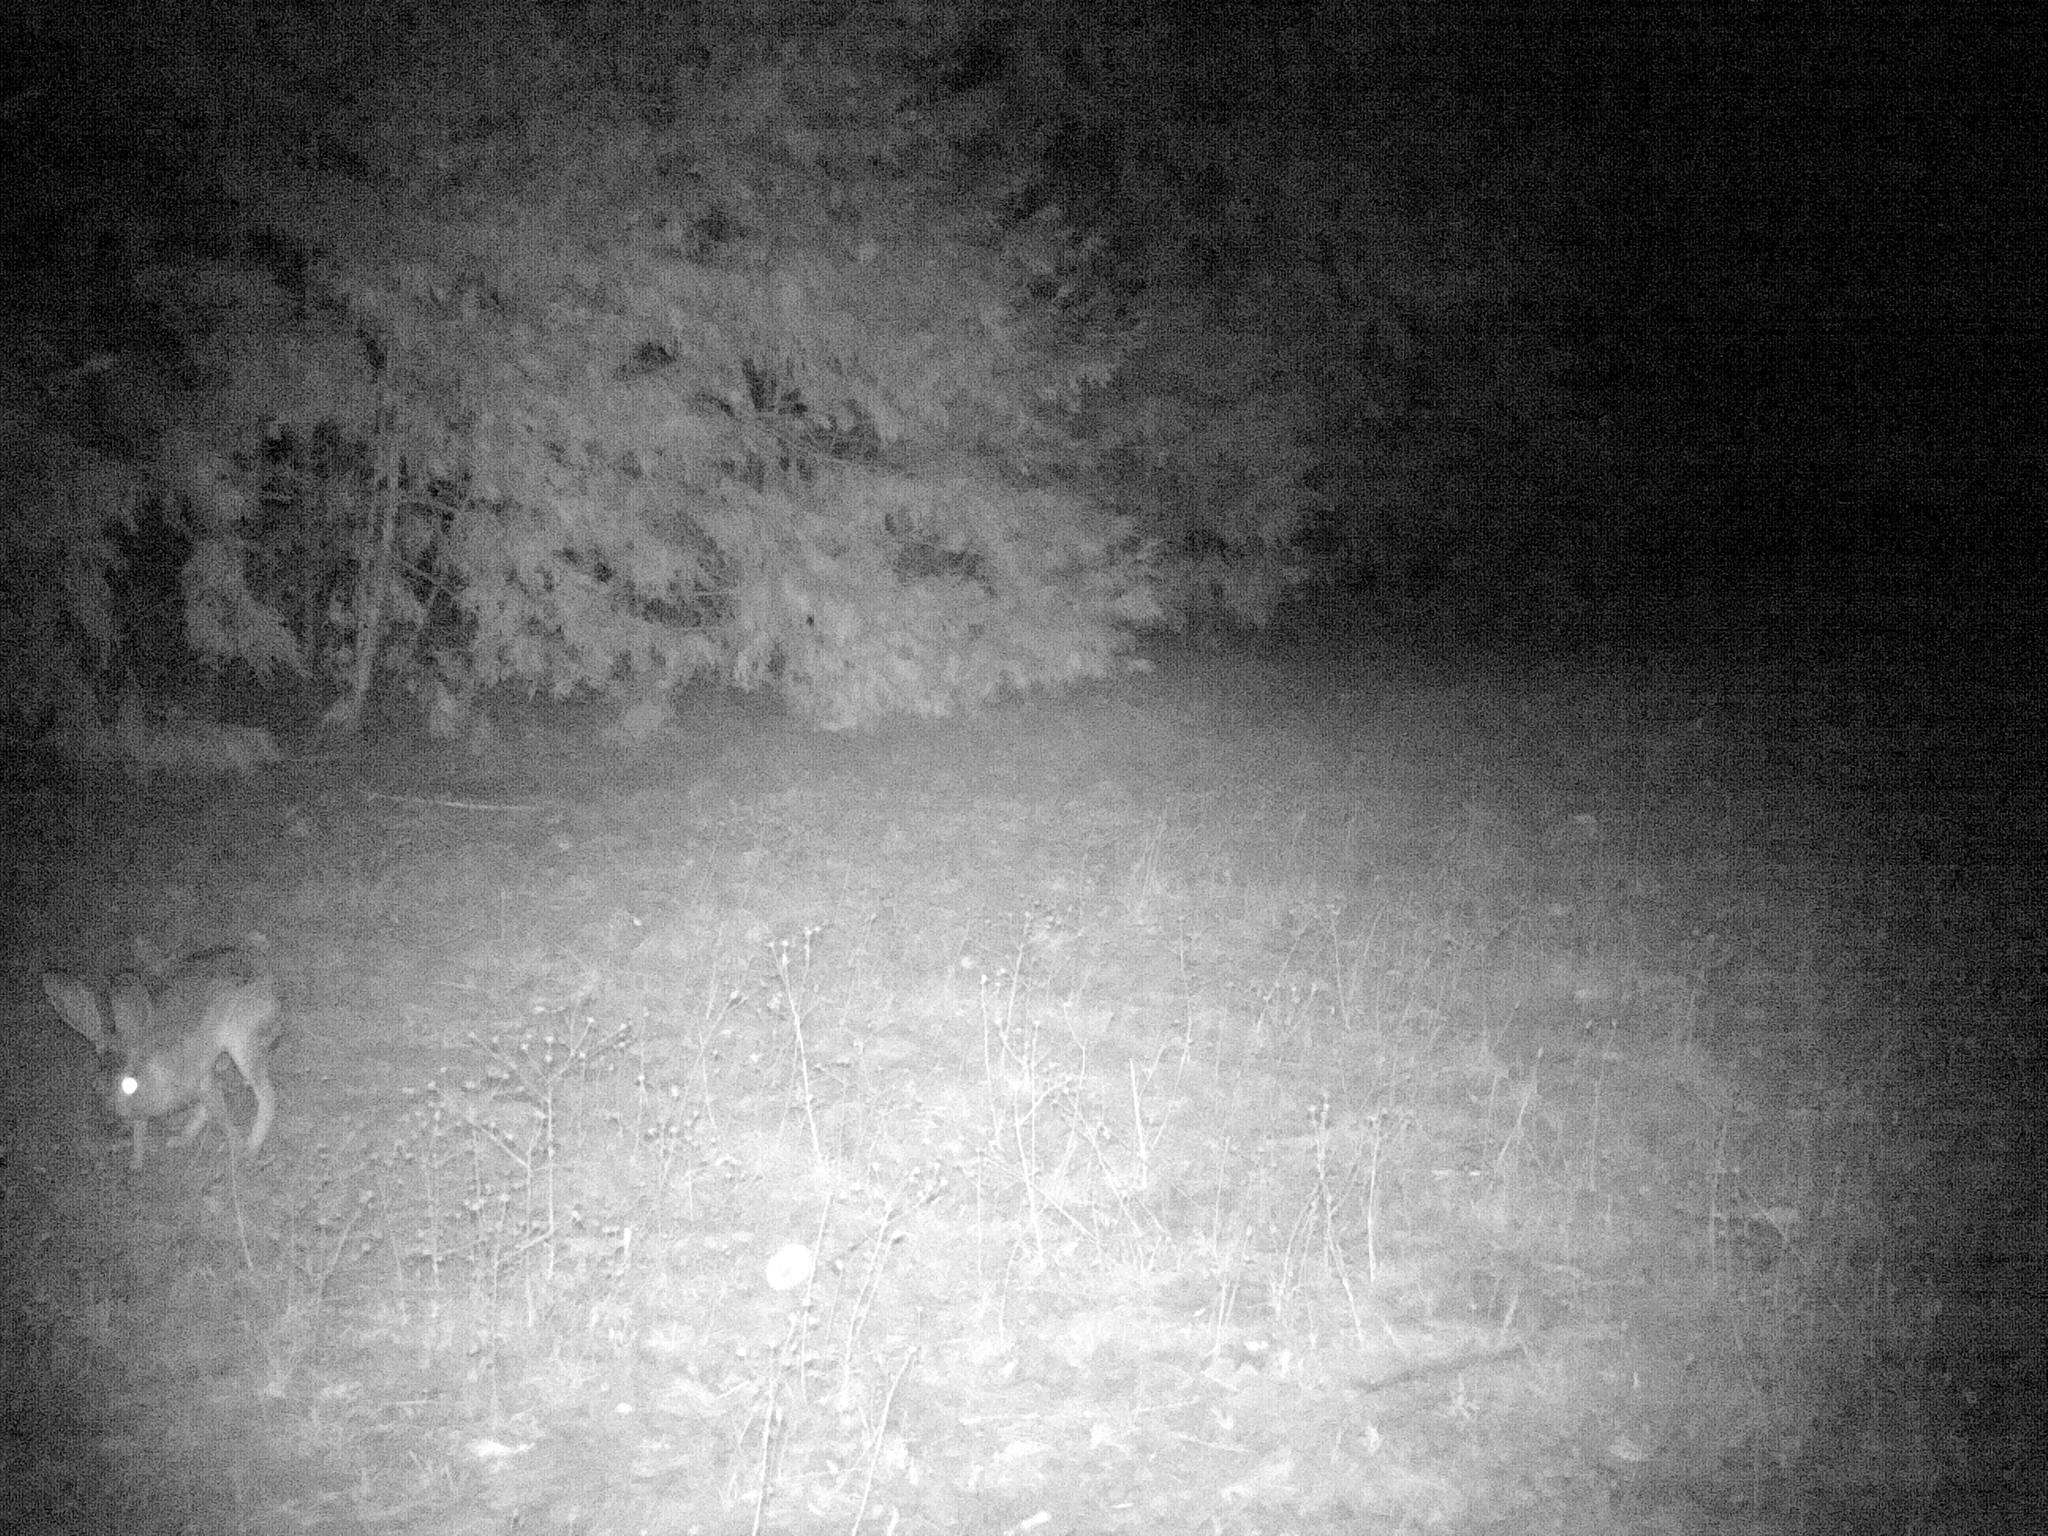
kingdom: Animalia
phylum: Chordata
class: Mammalia
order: Lagomorpha
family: Leporidae
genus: Lepus
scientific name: Lepus californicus
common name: Black-tailed jackrabbit
